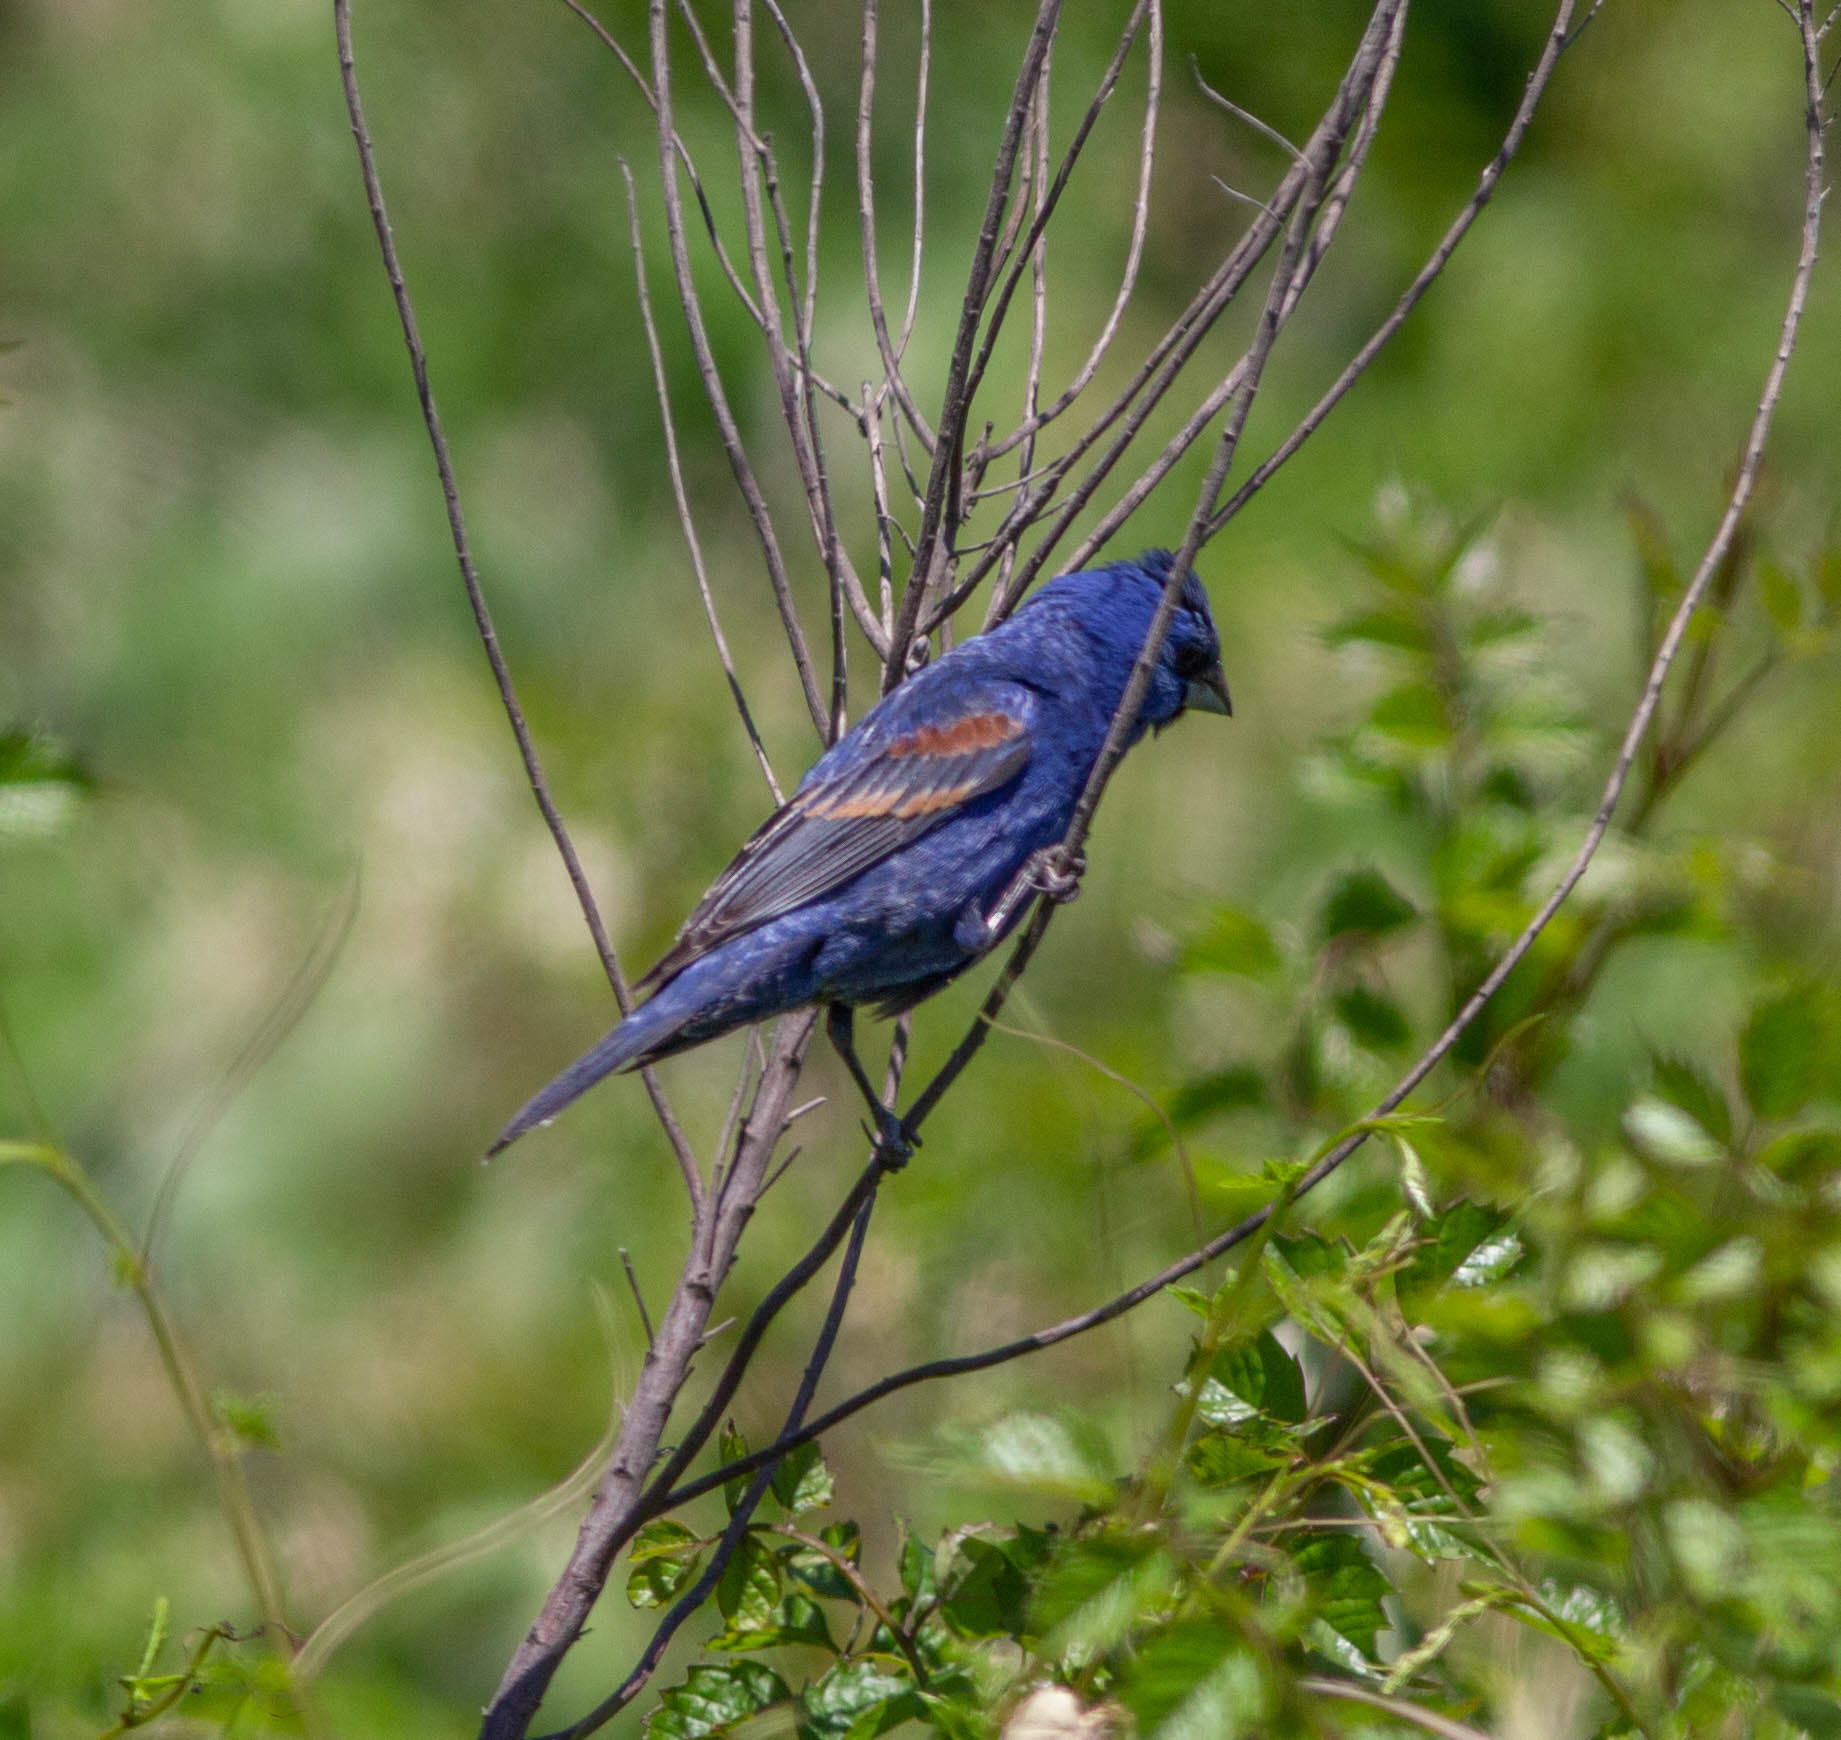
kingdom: Animalia
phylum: Chordata
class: Aves
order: Passeriformes
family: Cardinalidae
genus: Passerina
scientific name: Passerina caerulea
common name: Blue grosbeak
